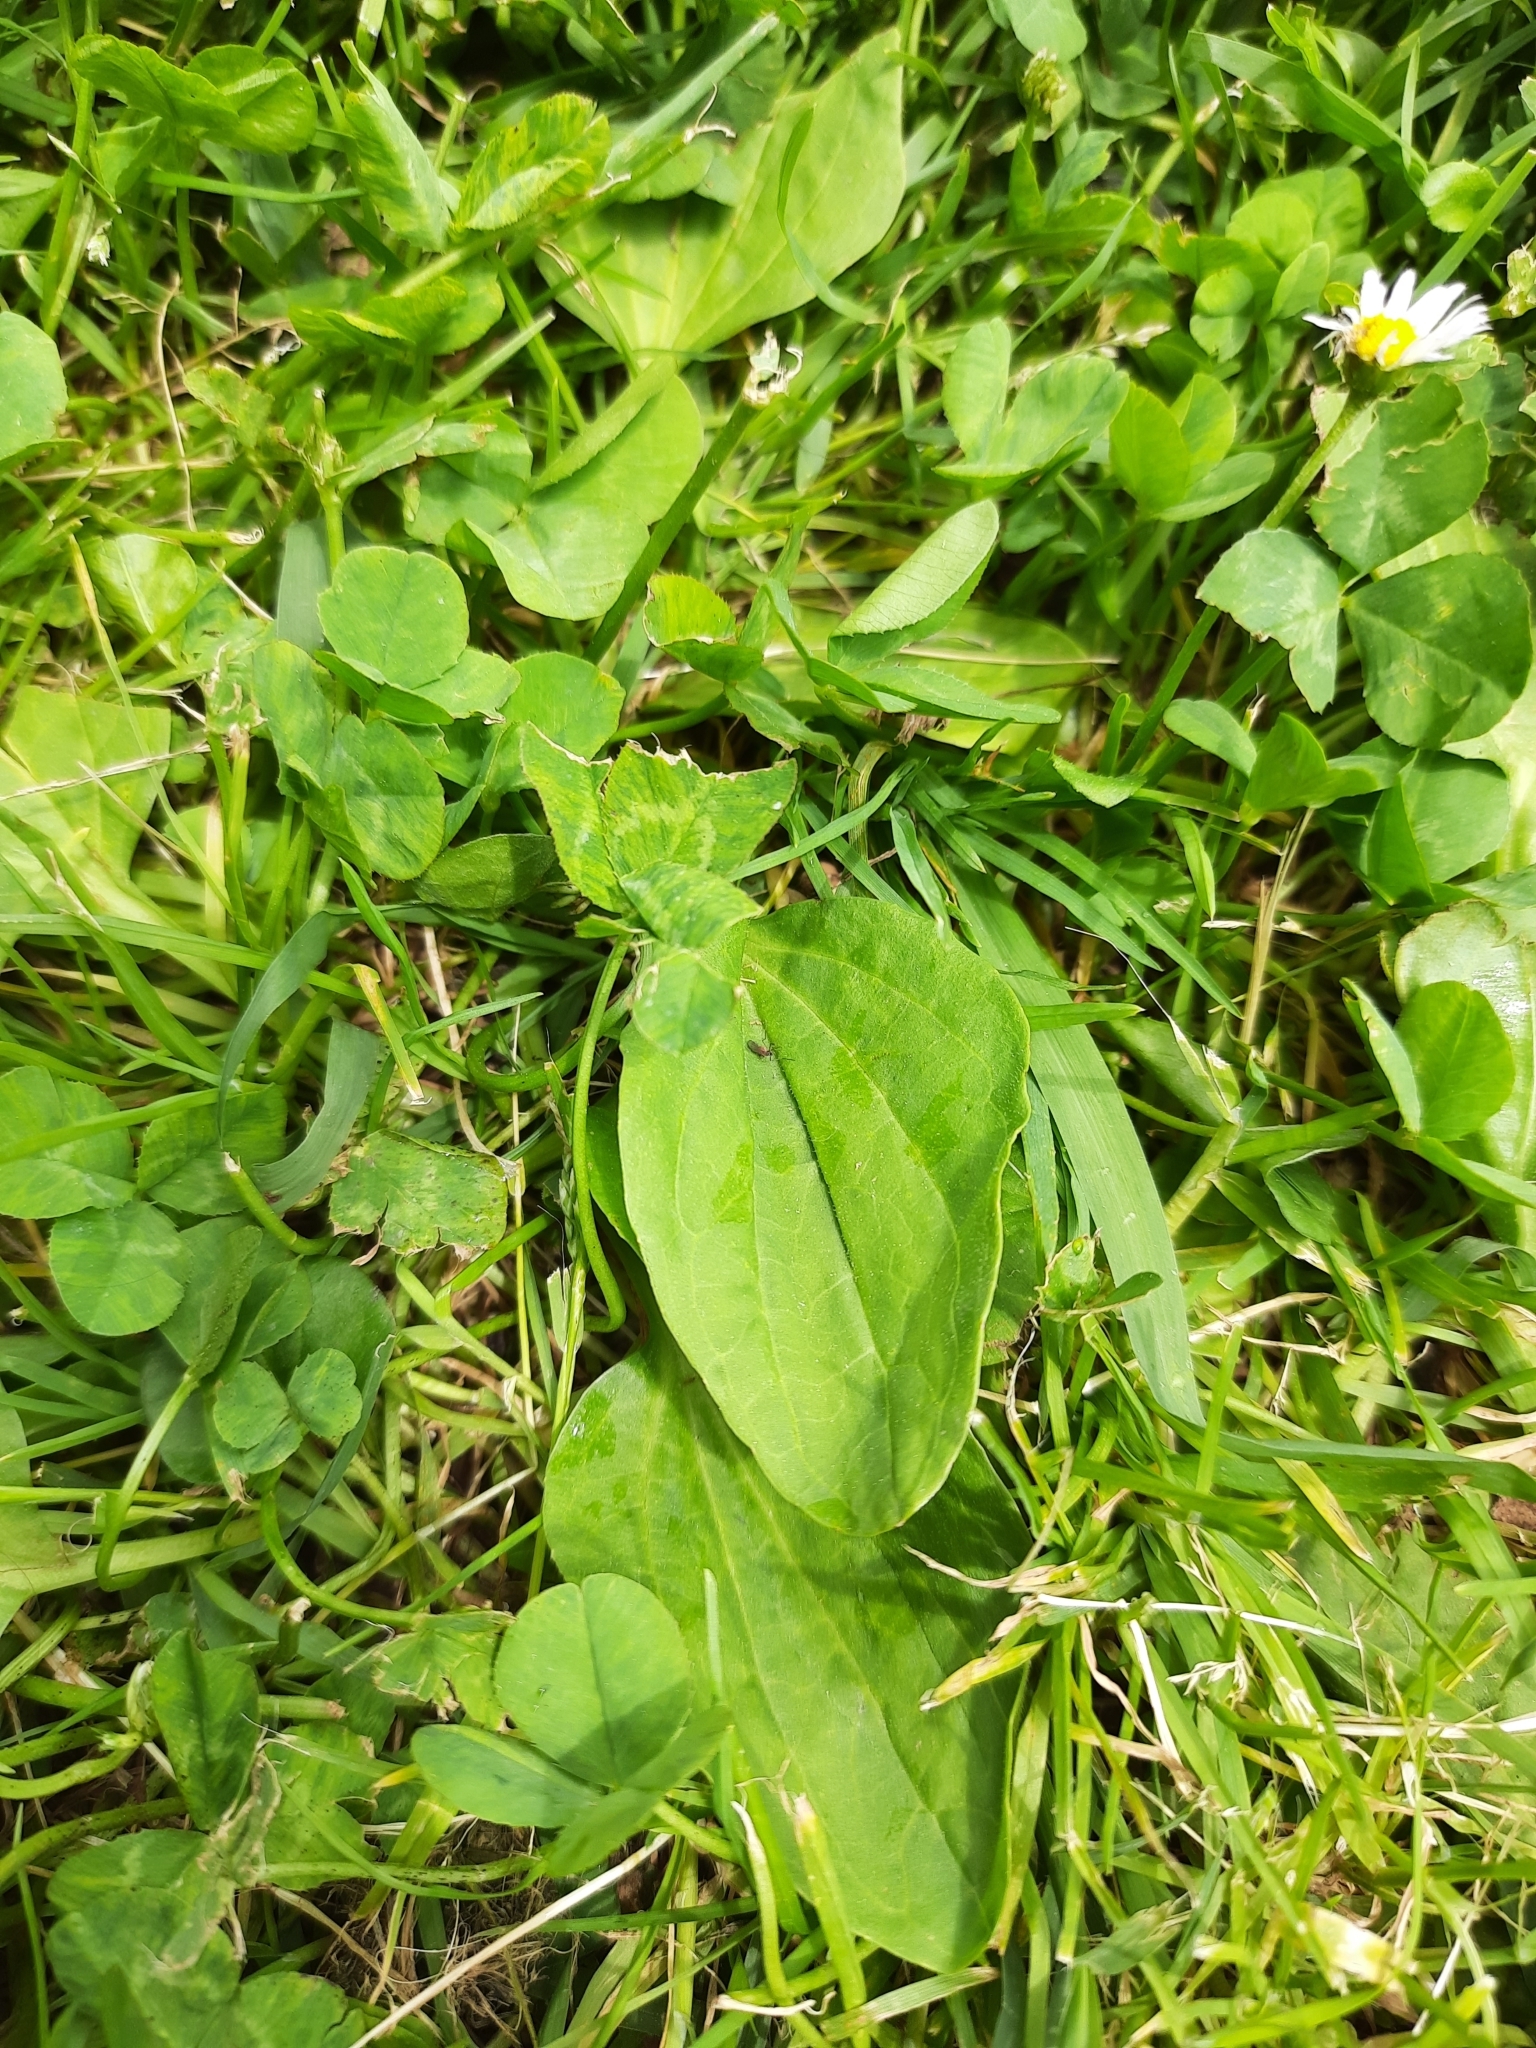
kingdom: Plantae
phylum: Tracheophyta
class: Magnoliopsida
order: Lamiales
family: Plantaginaceae
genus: Plantago
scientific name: Plantago major
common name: Common plantain
